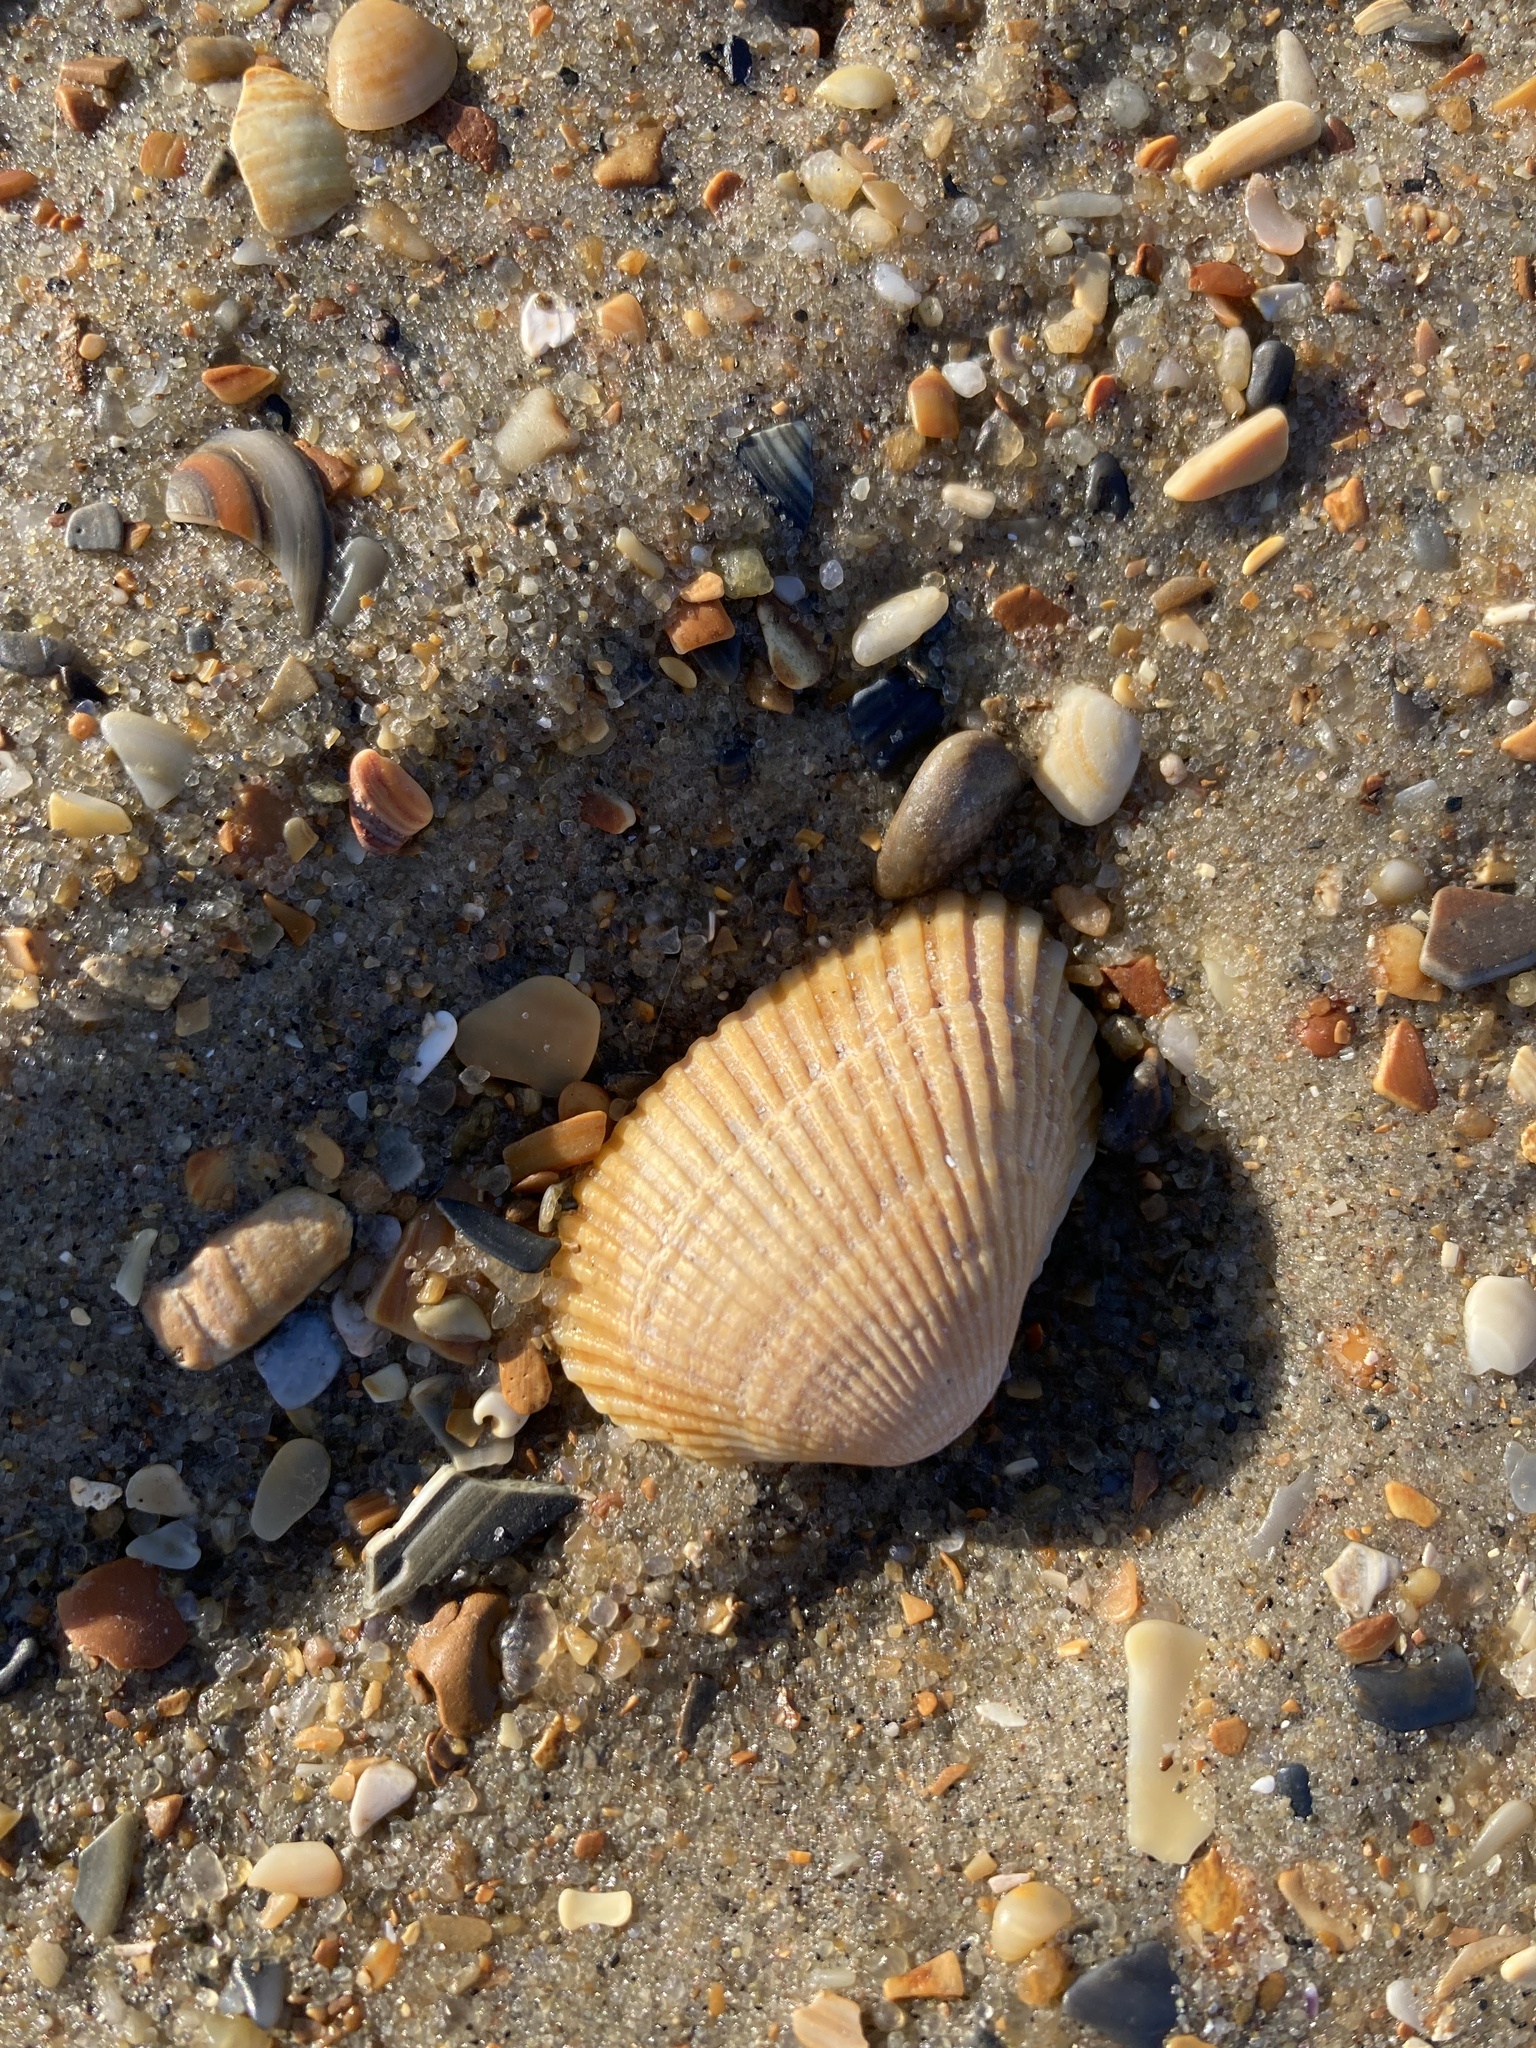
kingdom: Animalia
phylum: Mollusca
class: Bivalvia
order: Arcida
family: Arcidae
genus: Anadara
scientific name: Anadara transversa
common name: Transverse ark
